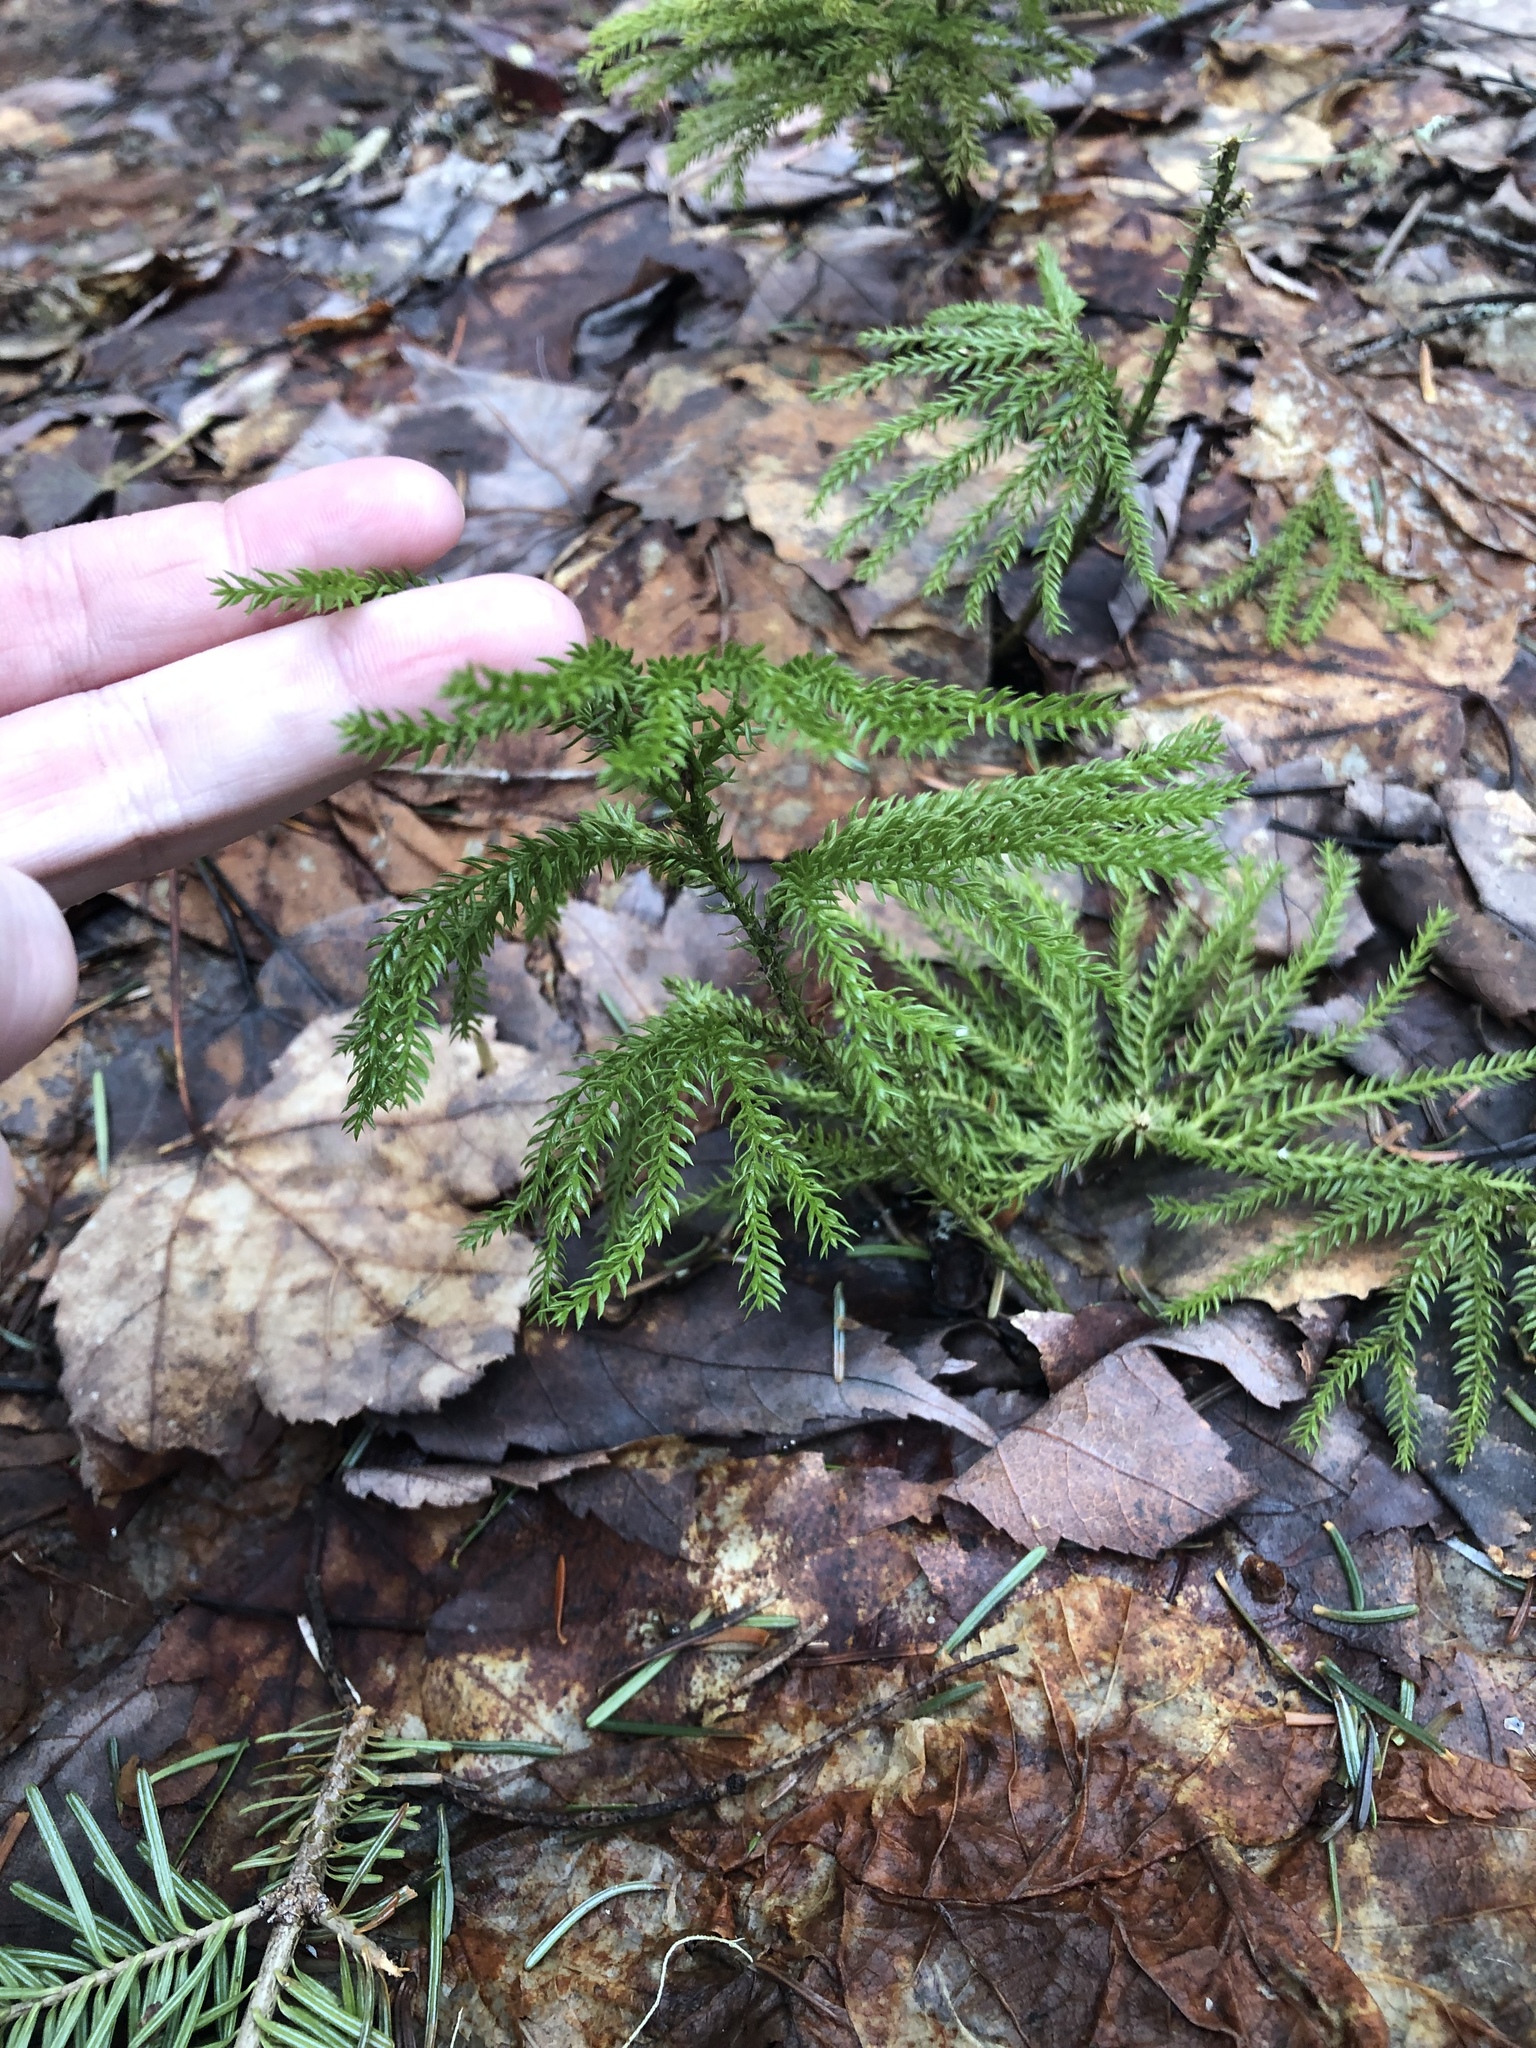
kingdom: Plantae
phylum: Tracheophyta
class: Lycopodiopsida
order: Lycopodiales
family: Lycopodiaceae
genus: Dendrolycopodium
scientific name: Dendrolycopodium dendroideum
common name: Northern tree-clubmoss
